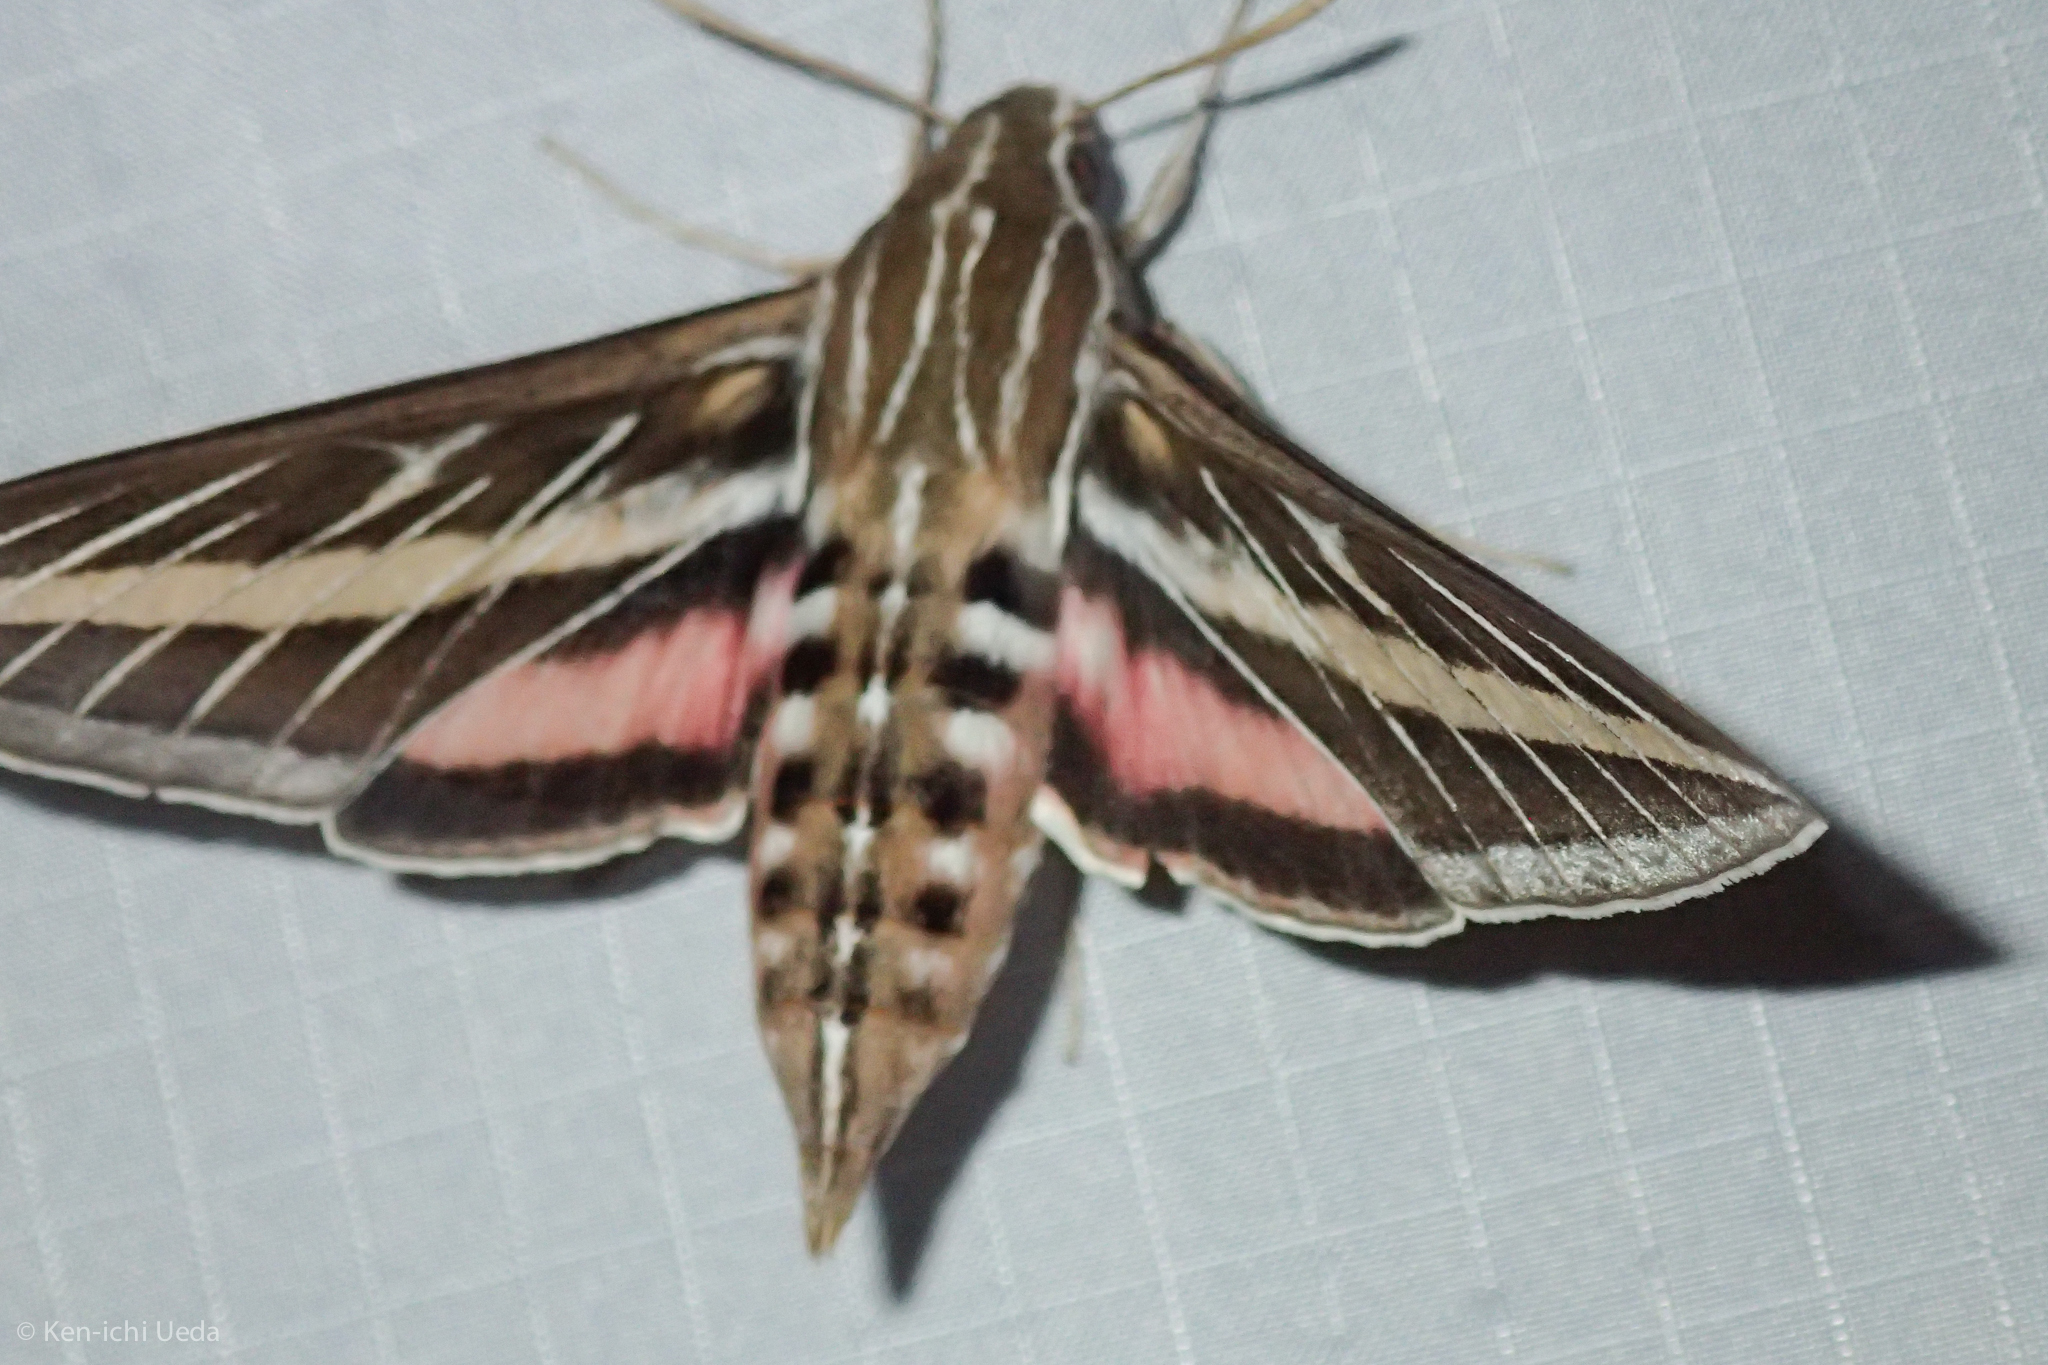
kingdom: Animalia
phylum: Arthropoda
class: Insecta
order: Lepidoptera
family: Sphingidae
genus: Hyles
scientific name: Hyles lineata
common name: White-lined sphinx
